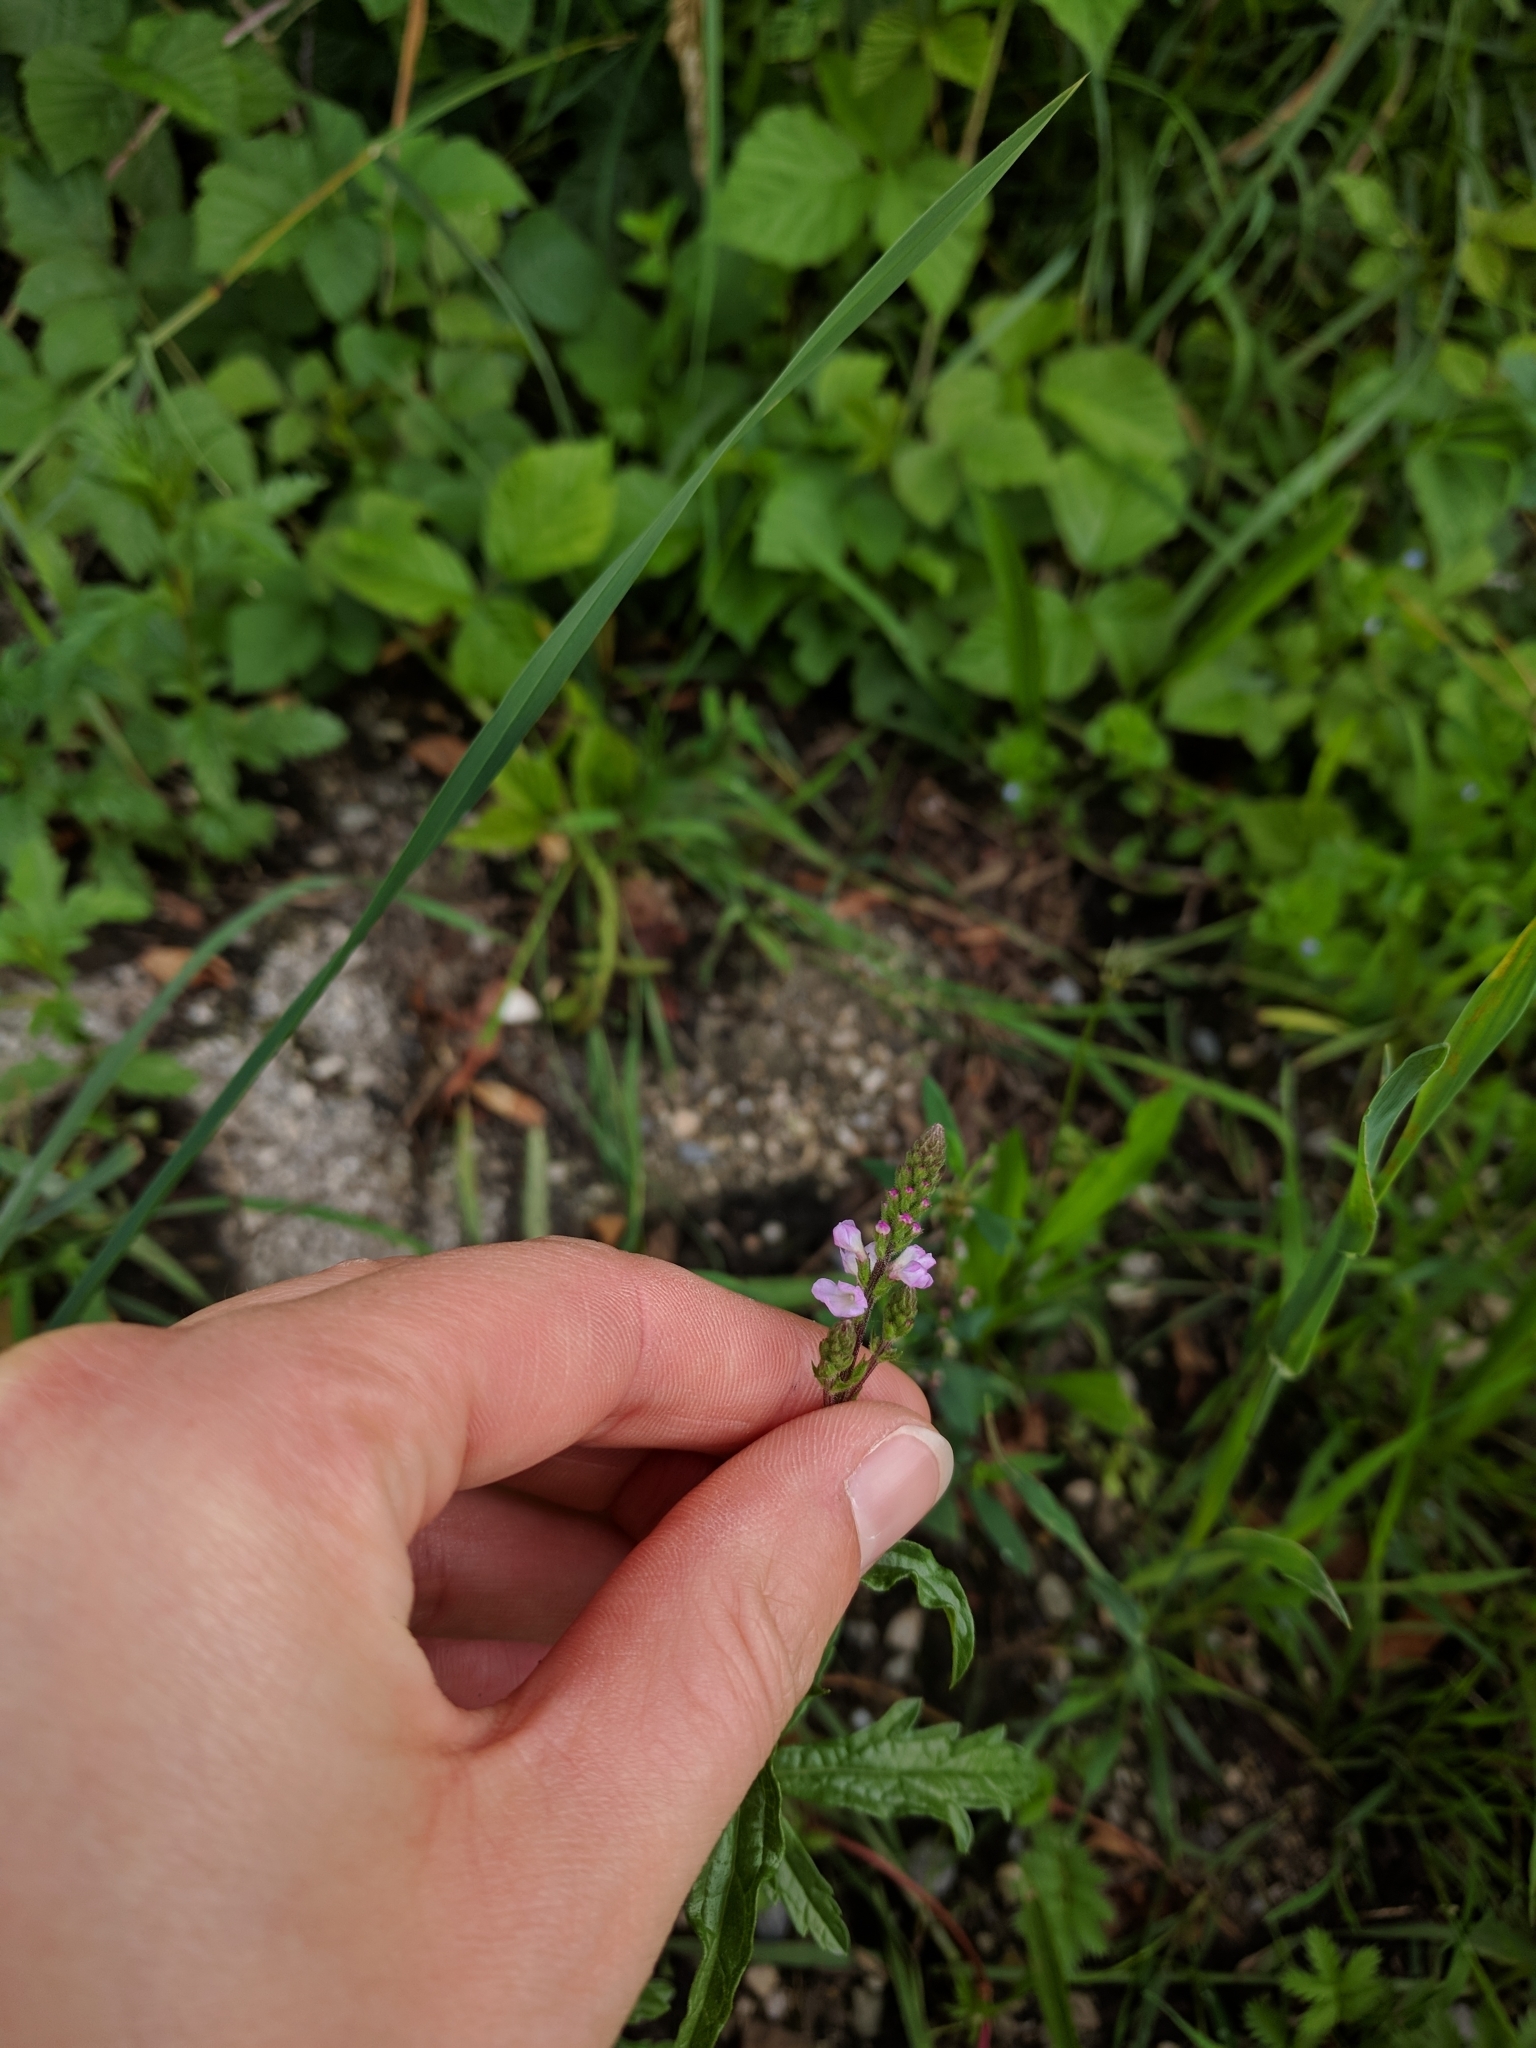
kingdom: Plantae
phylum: Tracheophyta
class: Magnoliopsida
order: Lamiales
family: Verbenaceae
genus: Verbena
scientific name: Verbena officinalis
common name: Vervain
